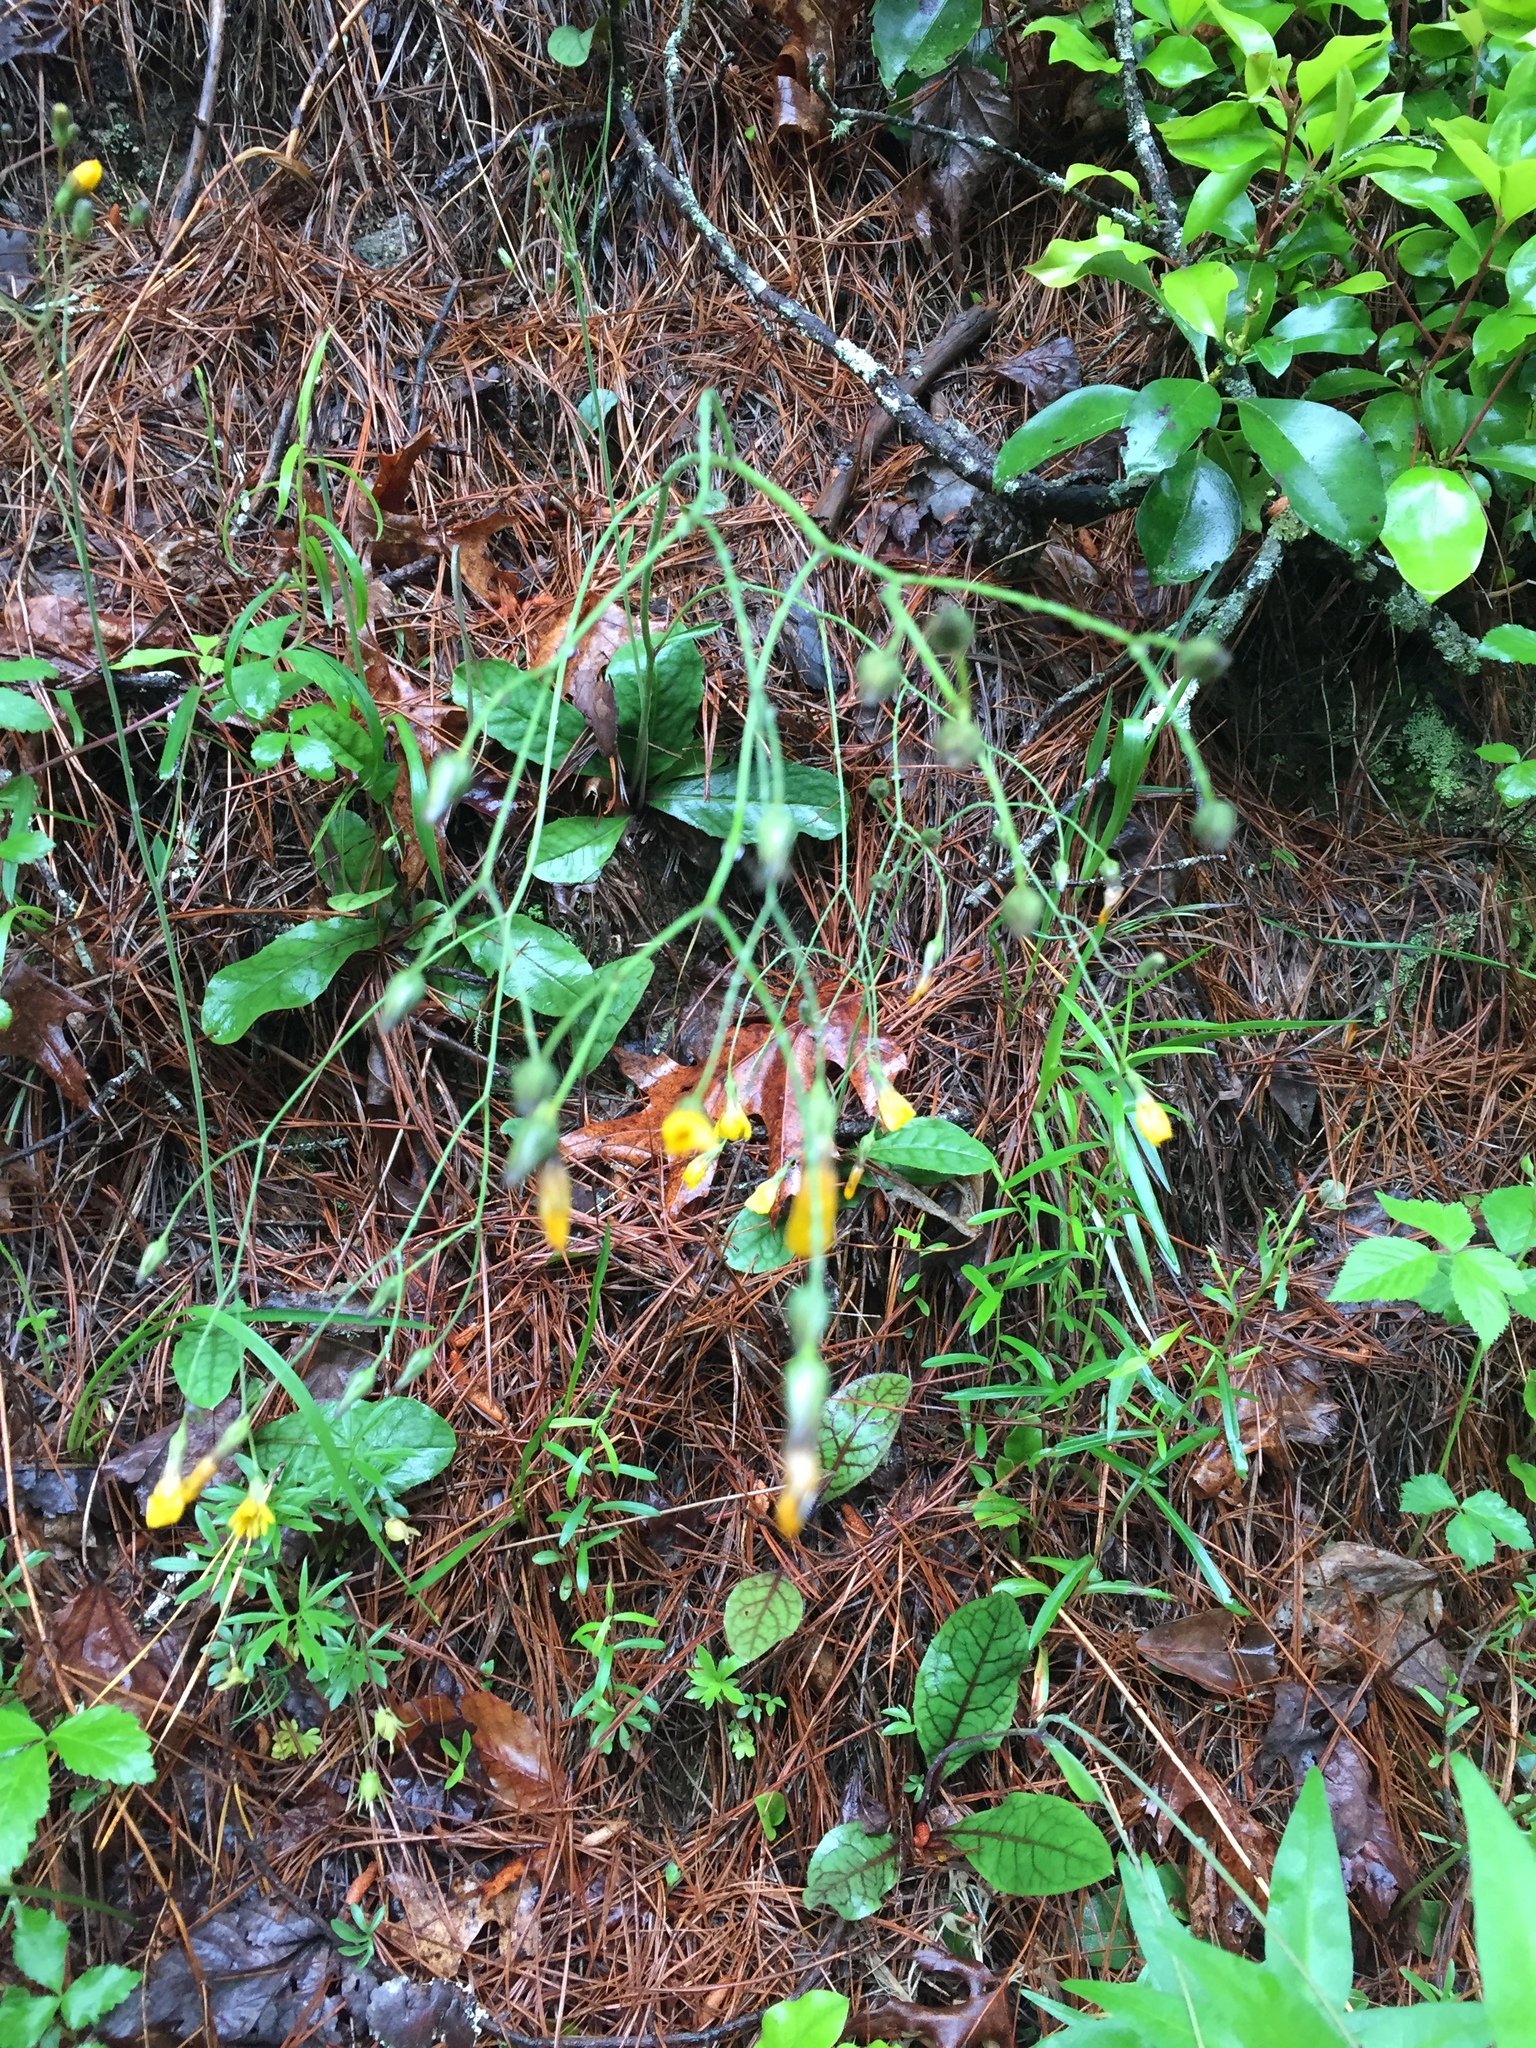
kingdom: Plantae
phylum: Tracheophyta
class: Magnoliopsida
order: Asterales
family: Asteraceae
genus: Hieracium
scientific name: Hieracium venosum
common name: Rattlesnake hawkweed
